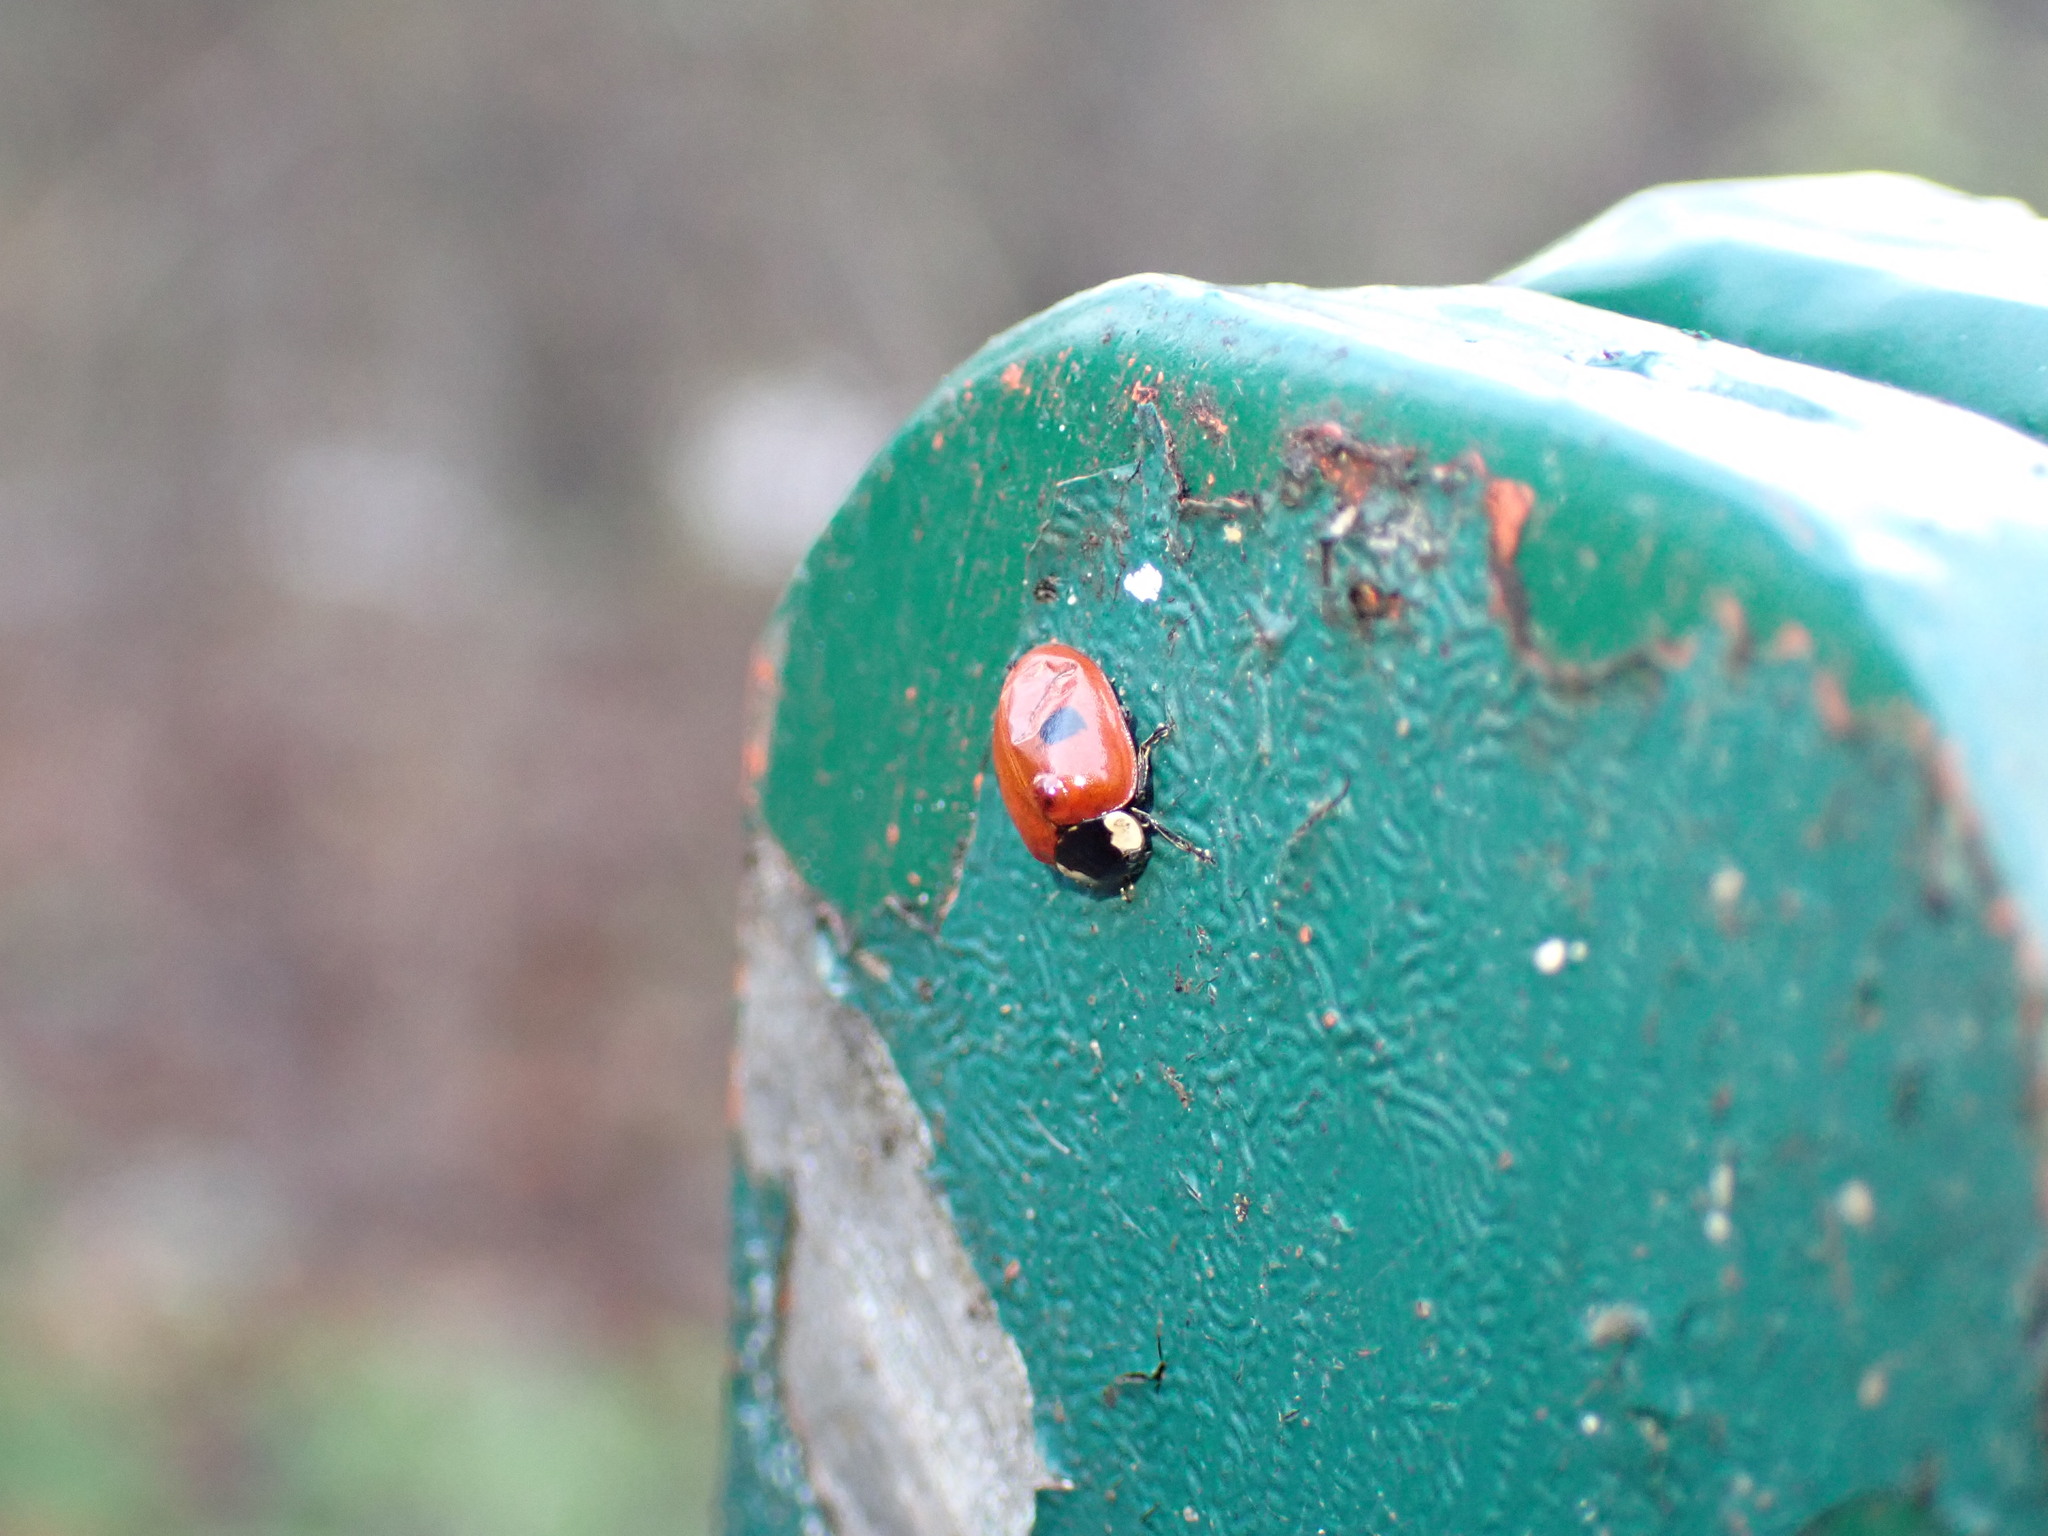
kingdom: Animalia
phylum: Arthropoda
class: Insecta
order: Coleoptera
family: Coccinellidae
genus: Adalia
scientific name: Adalia bipunctata
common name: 2-spot ladybird
